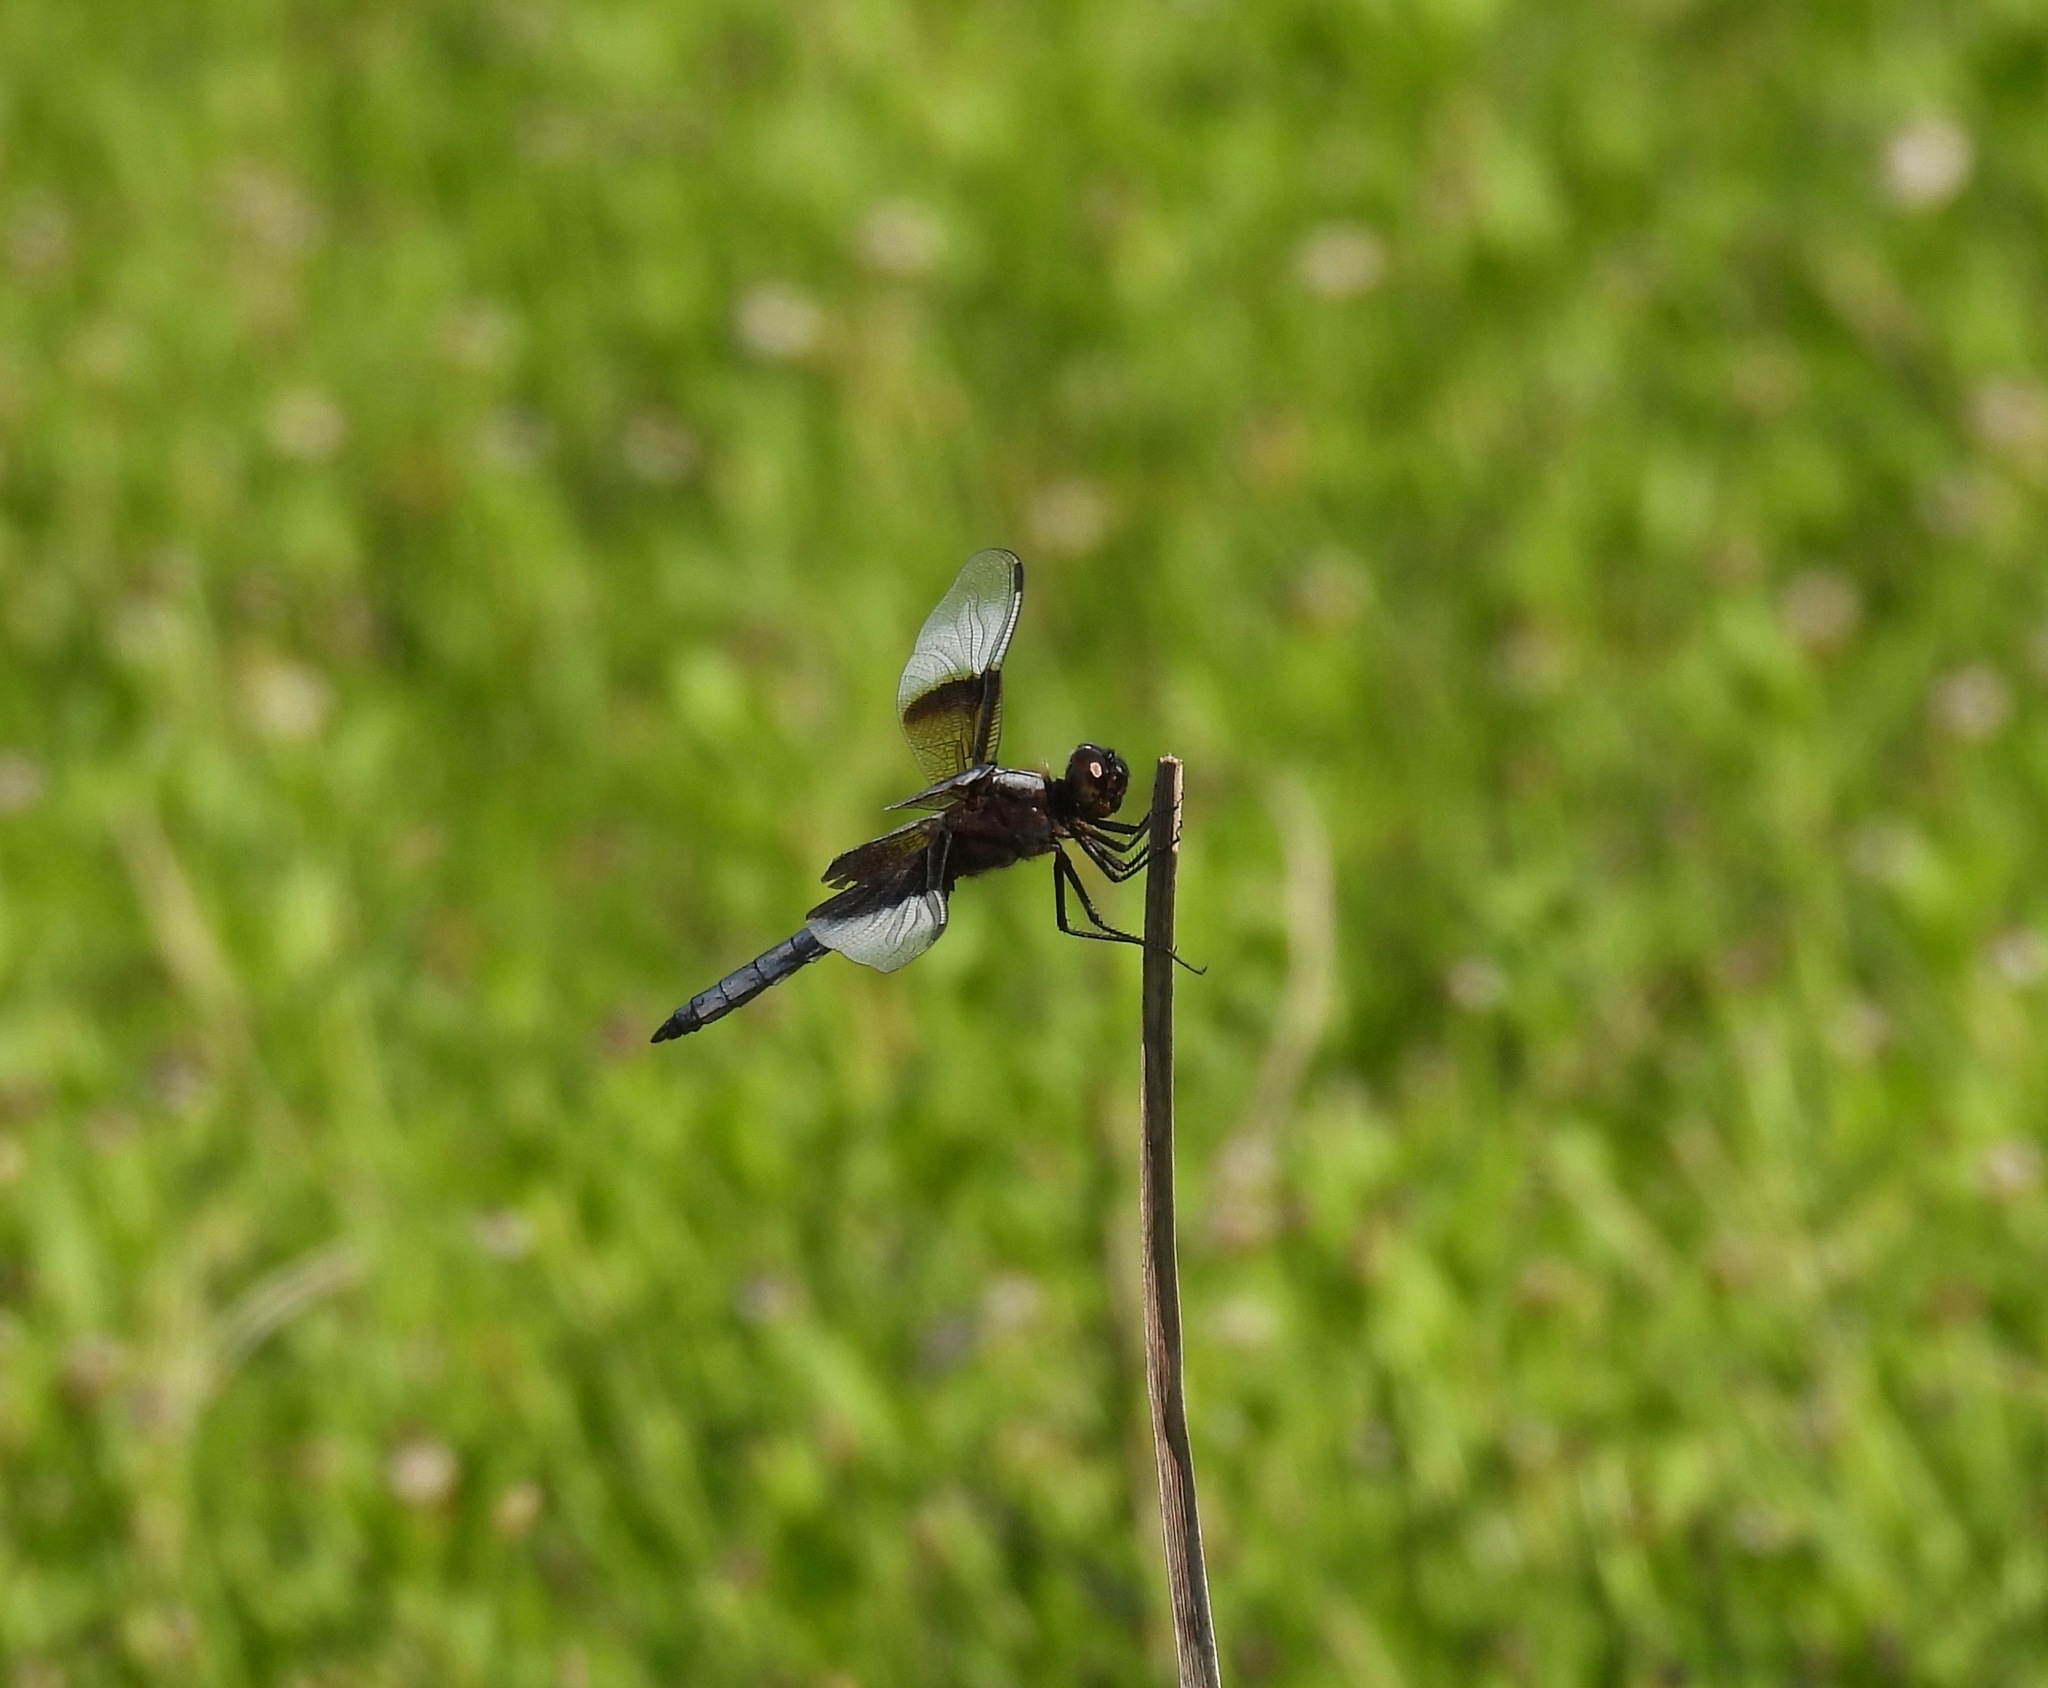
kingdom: Animalia
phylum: Arthropoda
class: Insecta
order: Odonata
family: Libellulidae
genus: Libellula
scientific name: Libellula luctuosa
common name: Widow skimmer
